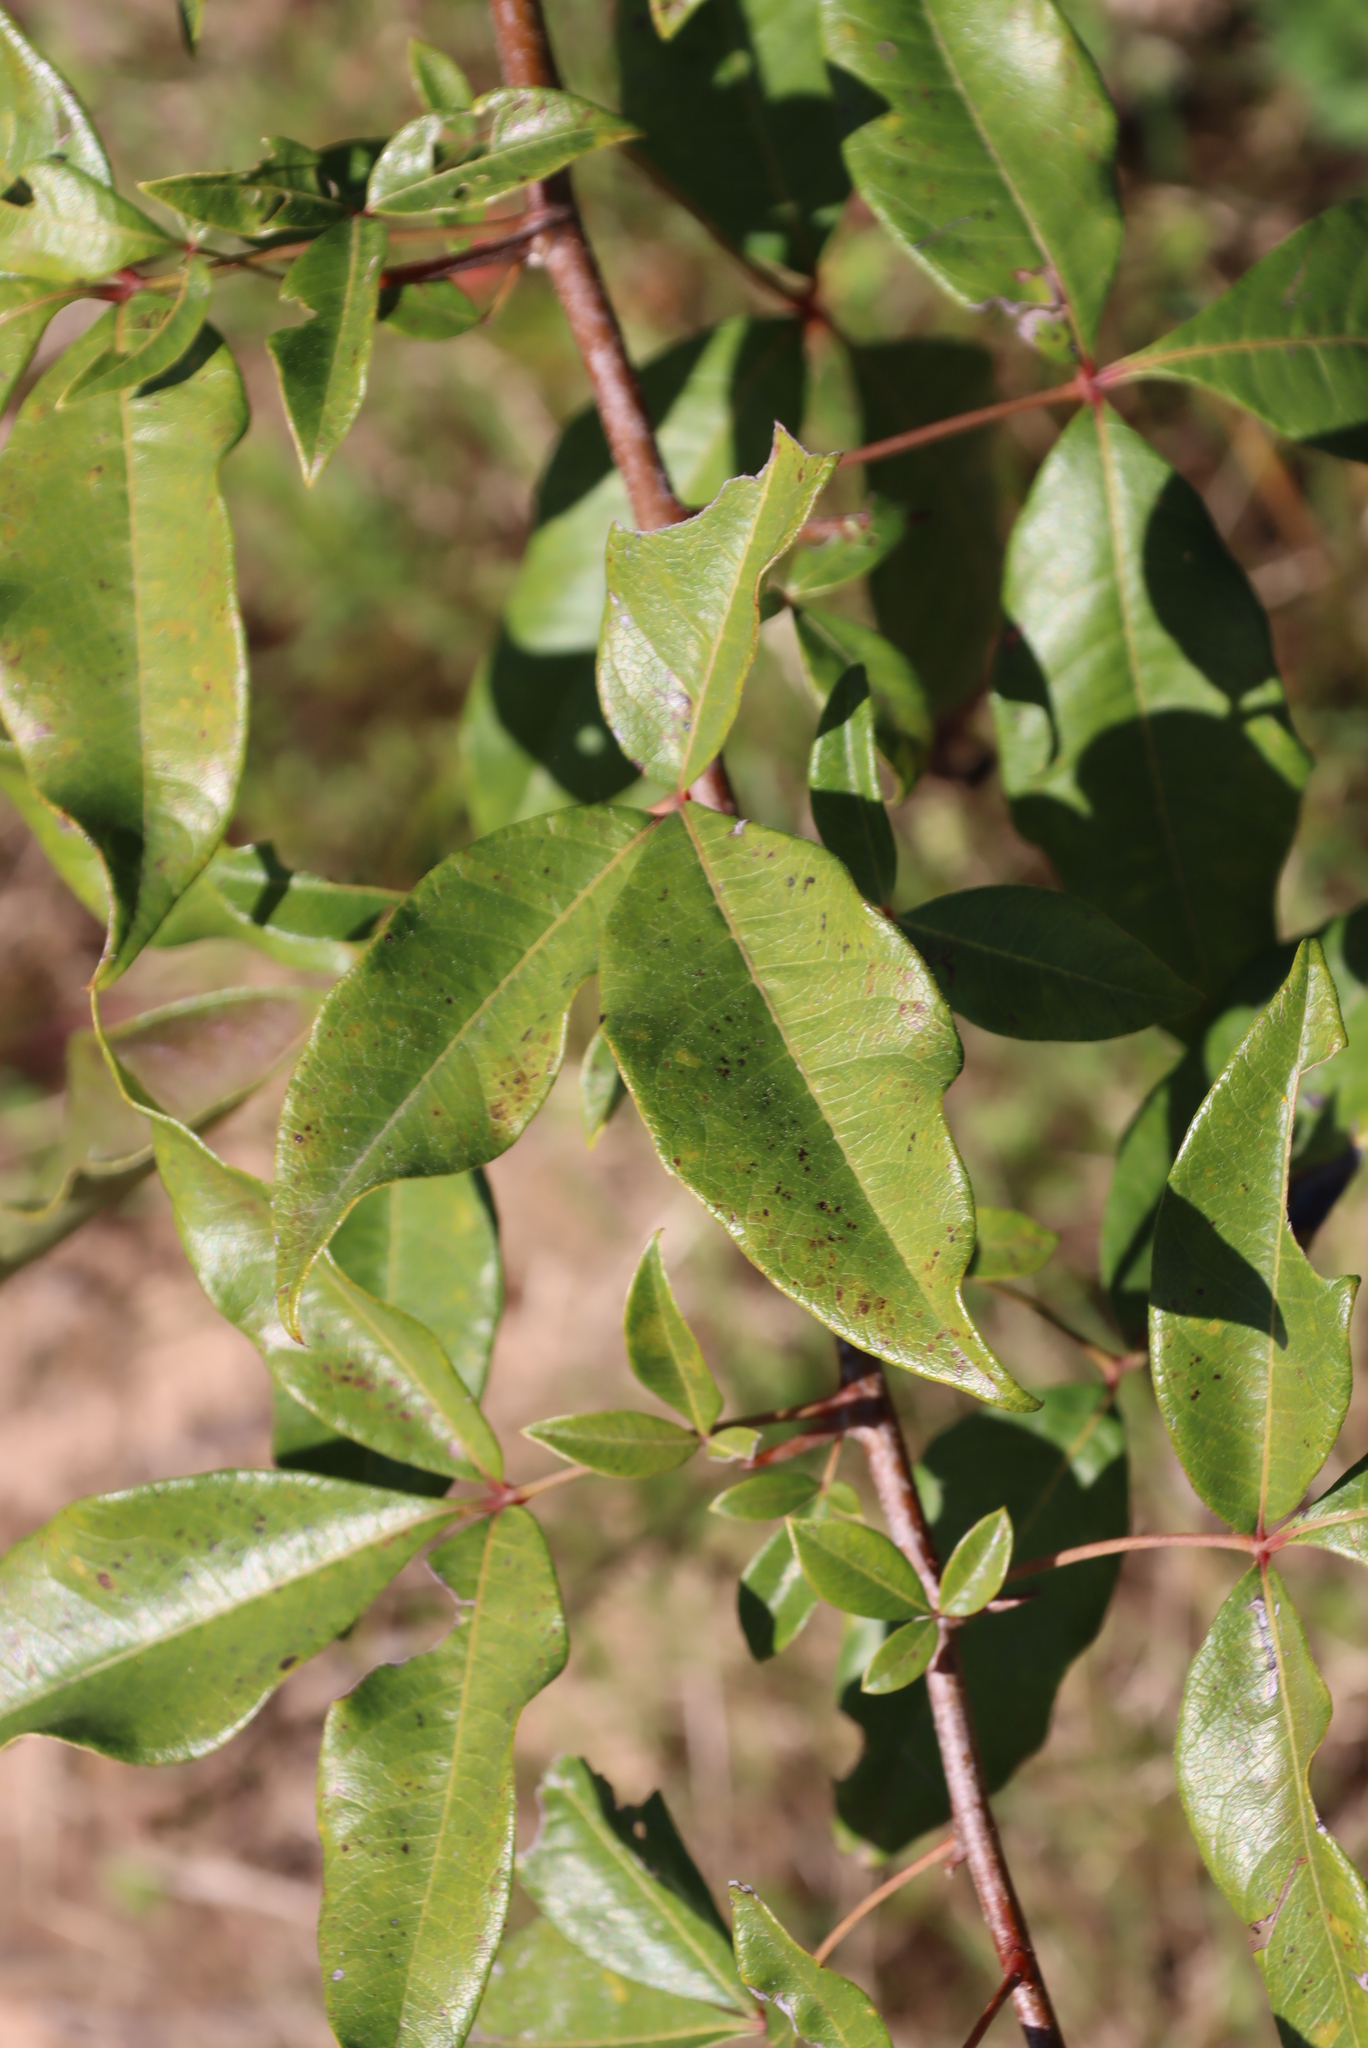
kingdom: Plantae
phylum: Tracheophyta
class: Magnoliopsida
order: Sapindales
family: Anacardiaceae
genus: Searsia
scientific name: Searsia chirindensis
